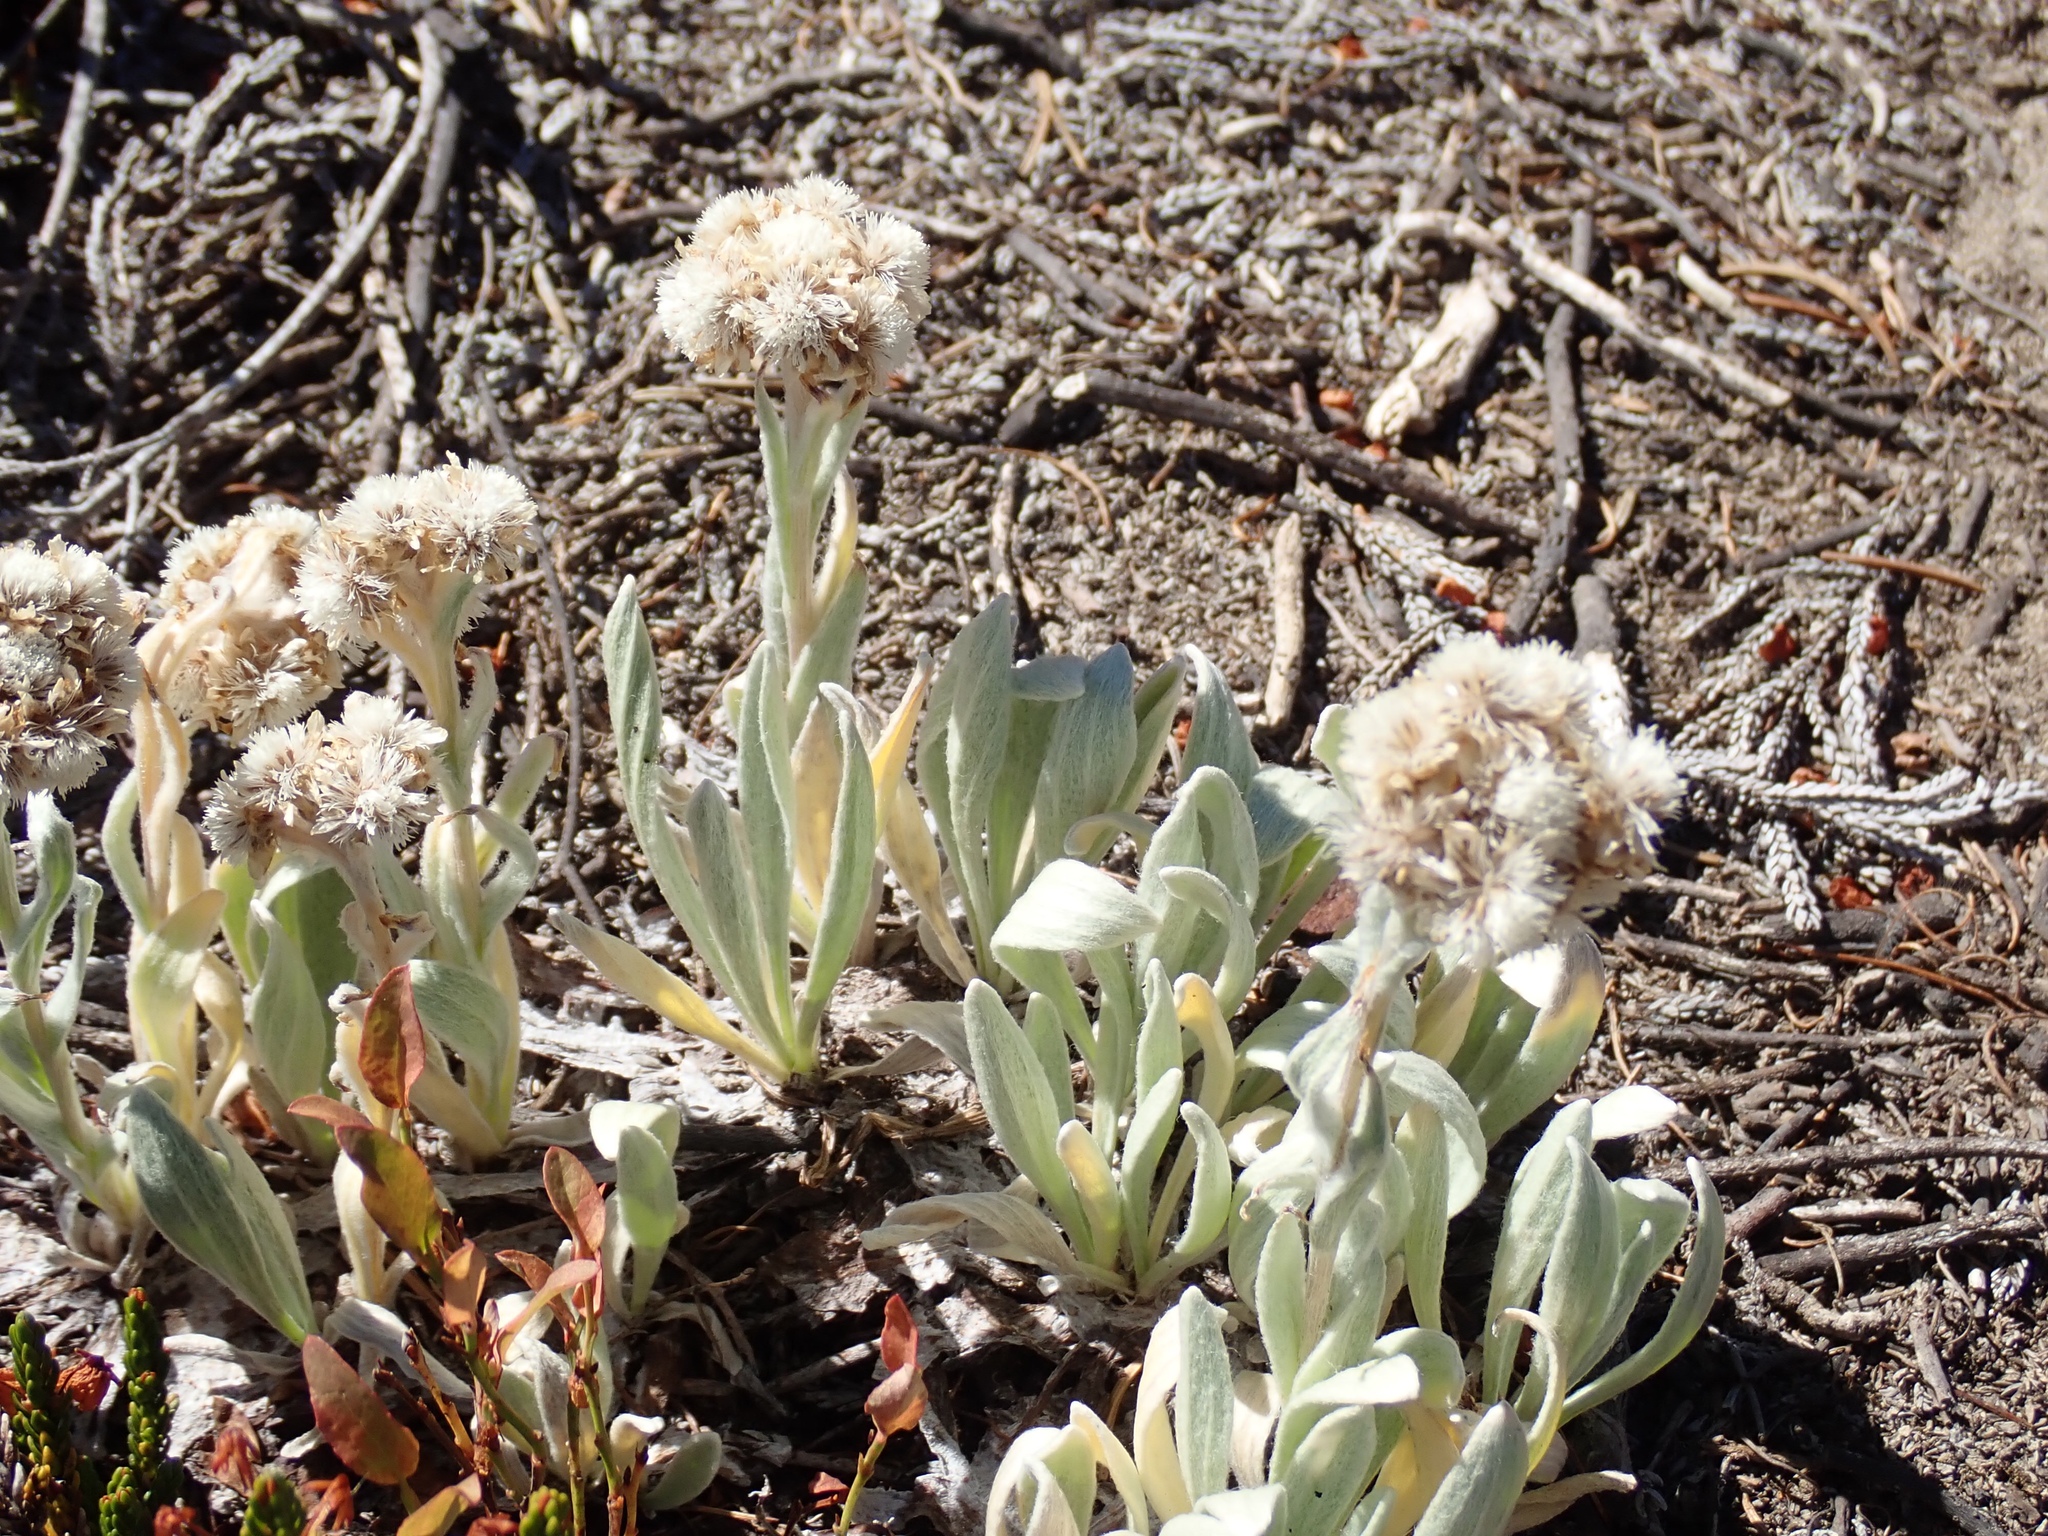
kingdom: Plantae
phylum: Tracheophyta
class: Magnoliopsida
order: Asterales
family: Asteraceae
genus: Antennaria
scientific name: Antennaria lanata
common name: Woolly pussytoes
